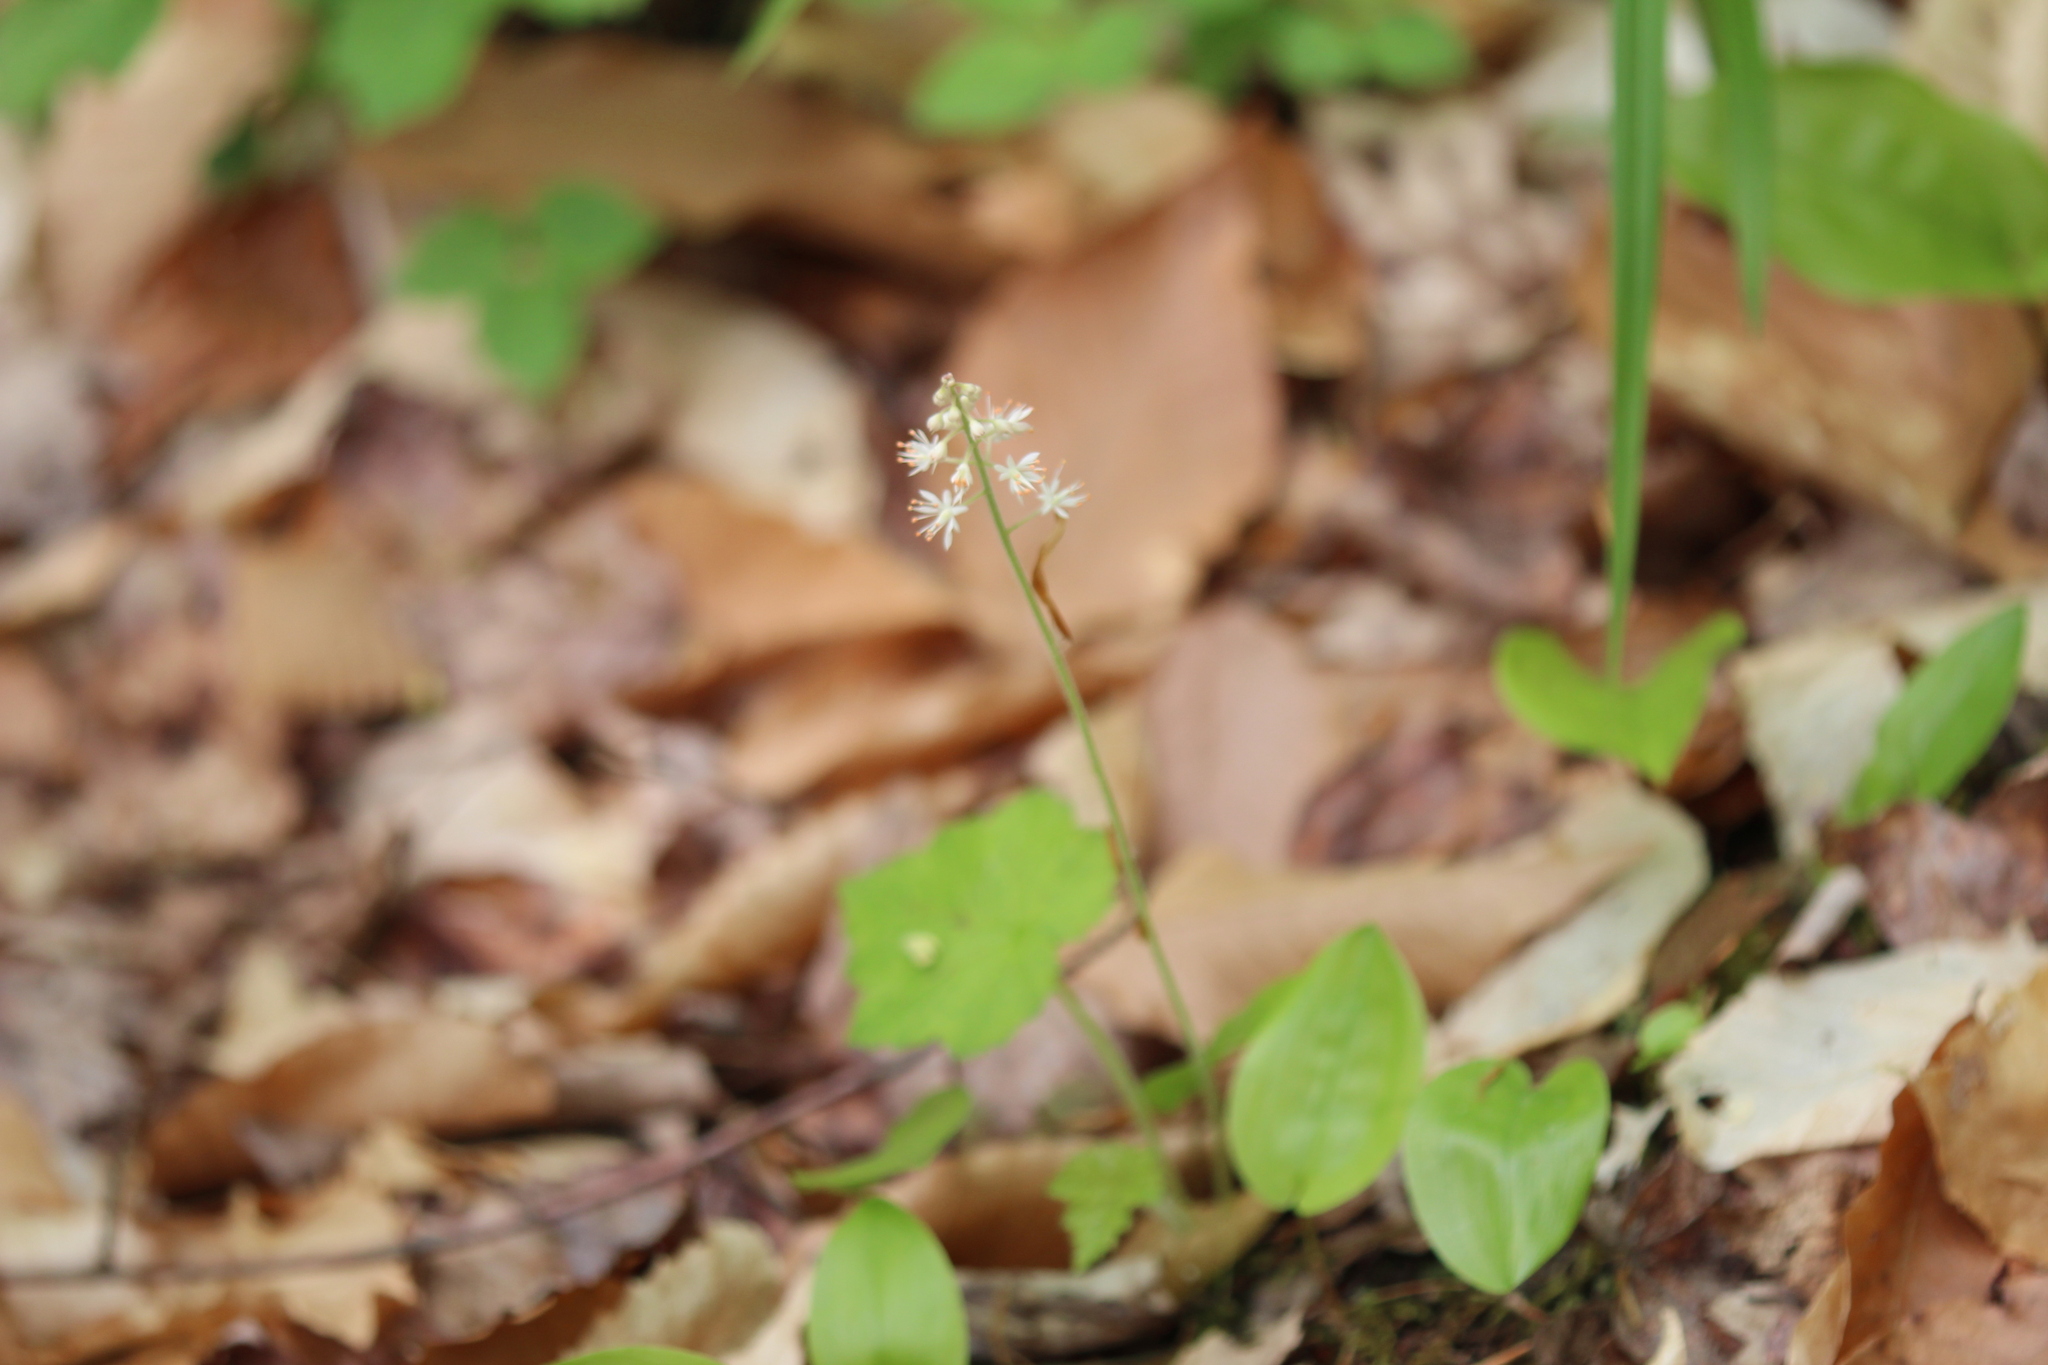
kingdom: Plantae
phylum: Tracheophyta
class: Magnoliopsida
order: Saxifragales
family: Saxifragaceae
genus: Tiarella
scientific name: Tiarella stolonifera
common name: Stoloniferous foamflower
